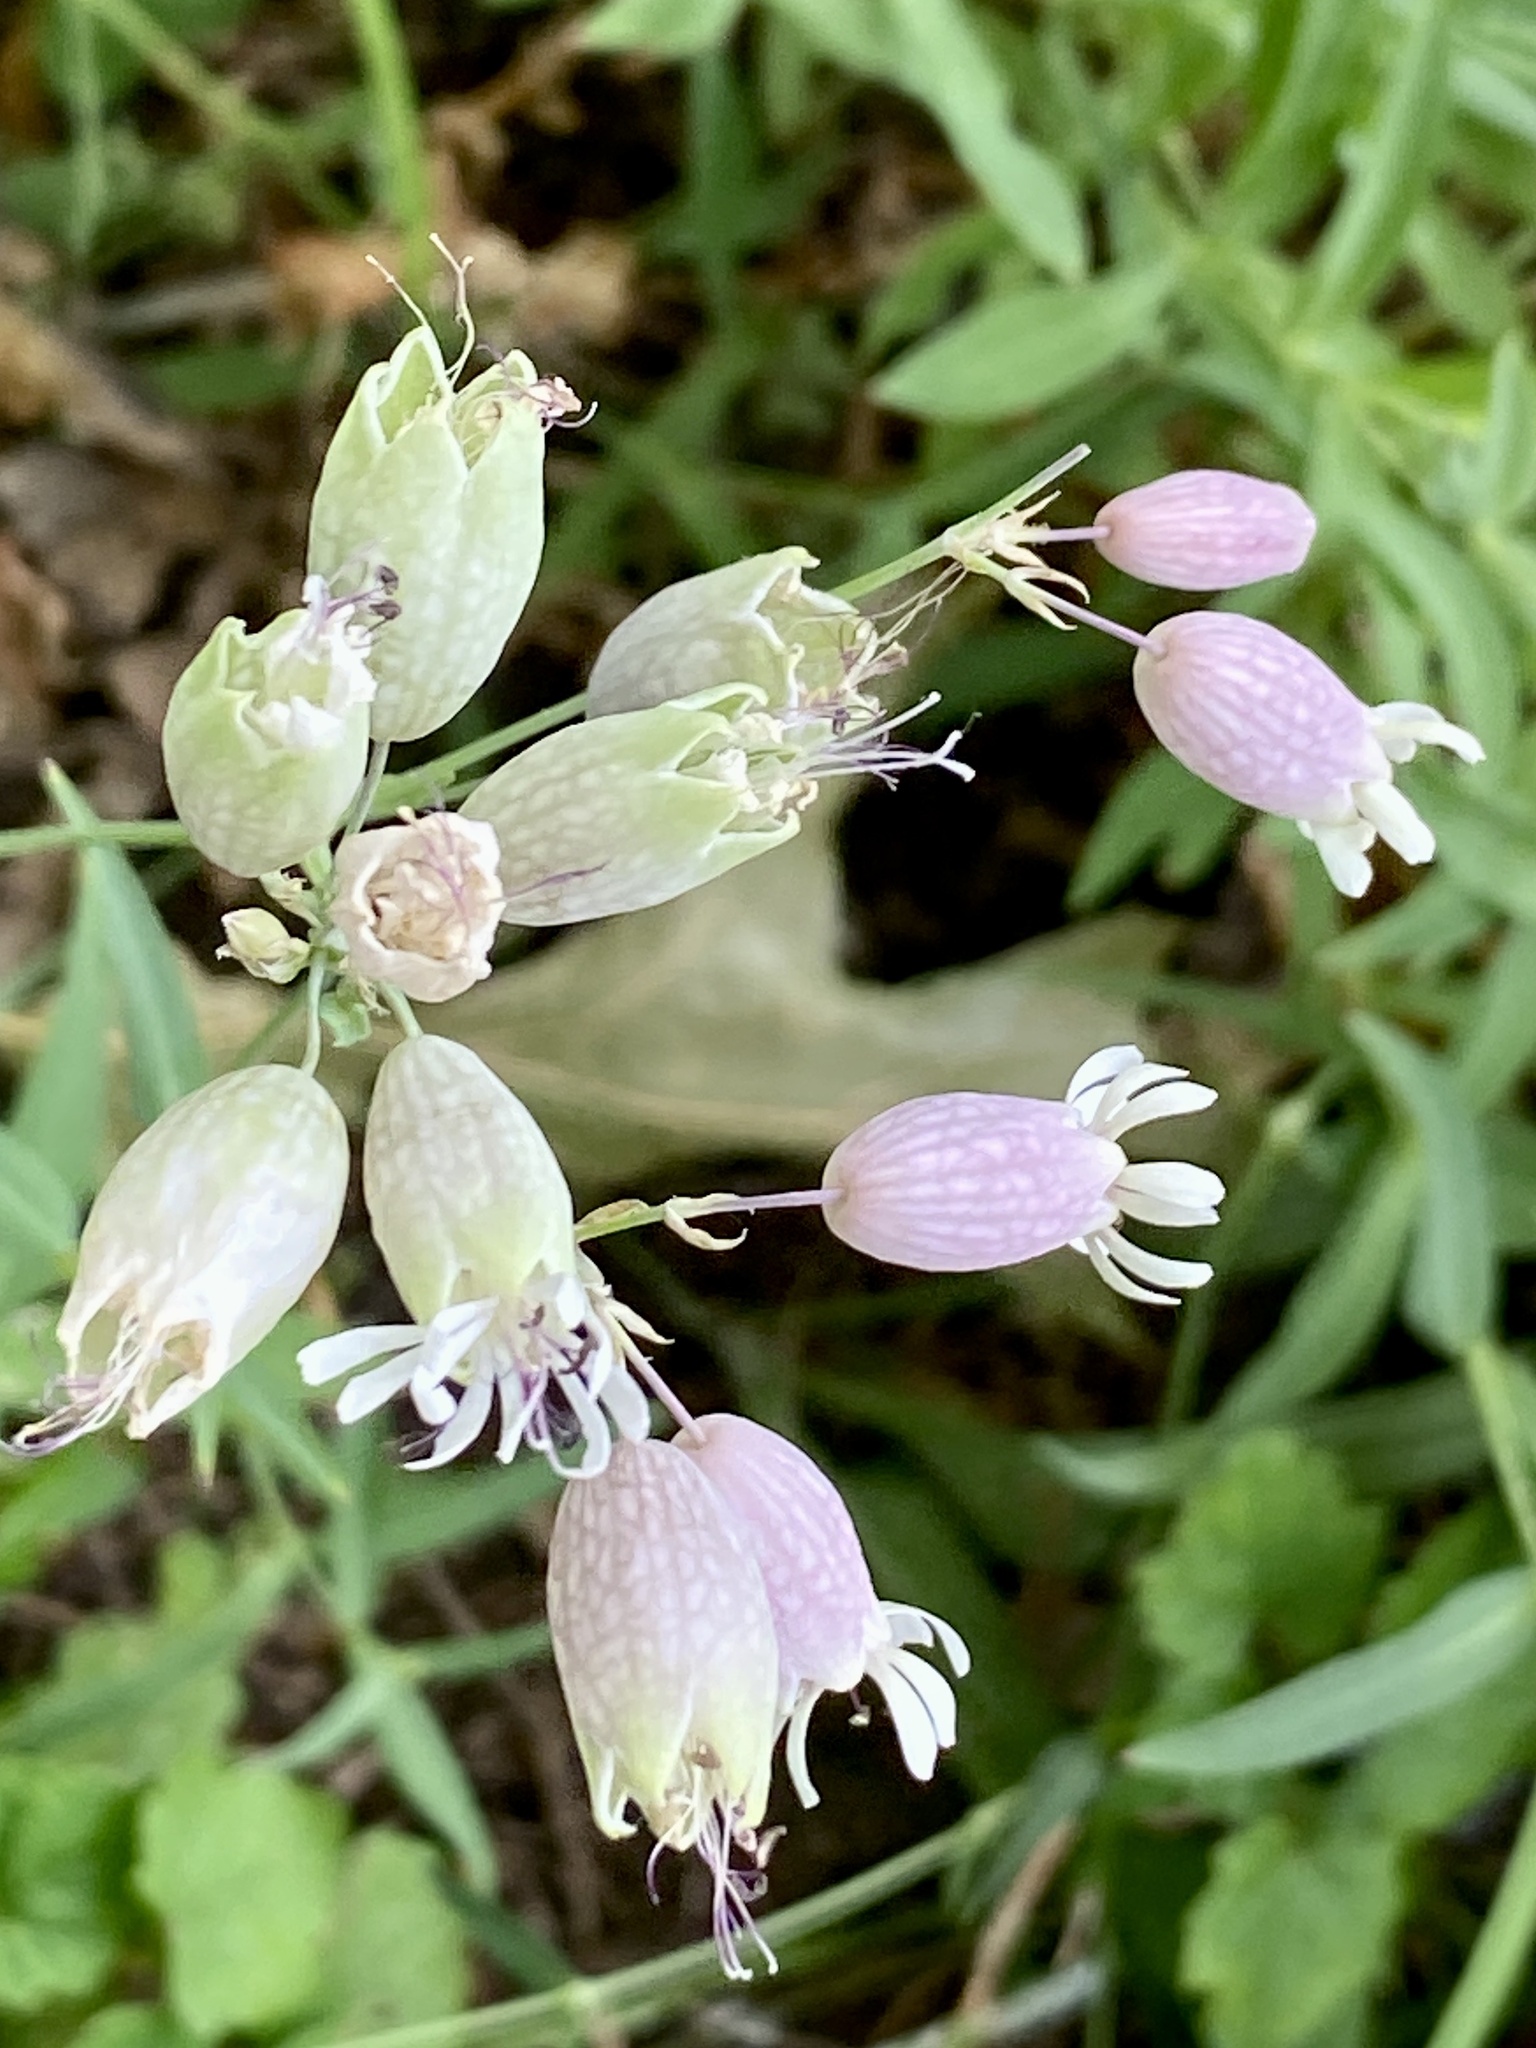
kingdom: Plantae
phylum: Tracheophyta
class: Magnoliopsida
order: Caryophyllales
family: Caryophyllaceae
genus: Silene
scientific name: Silene vulgaris
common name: Bladder campion
